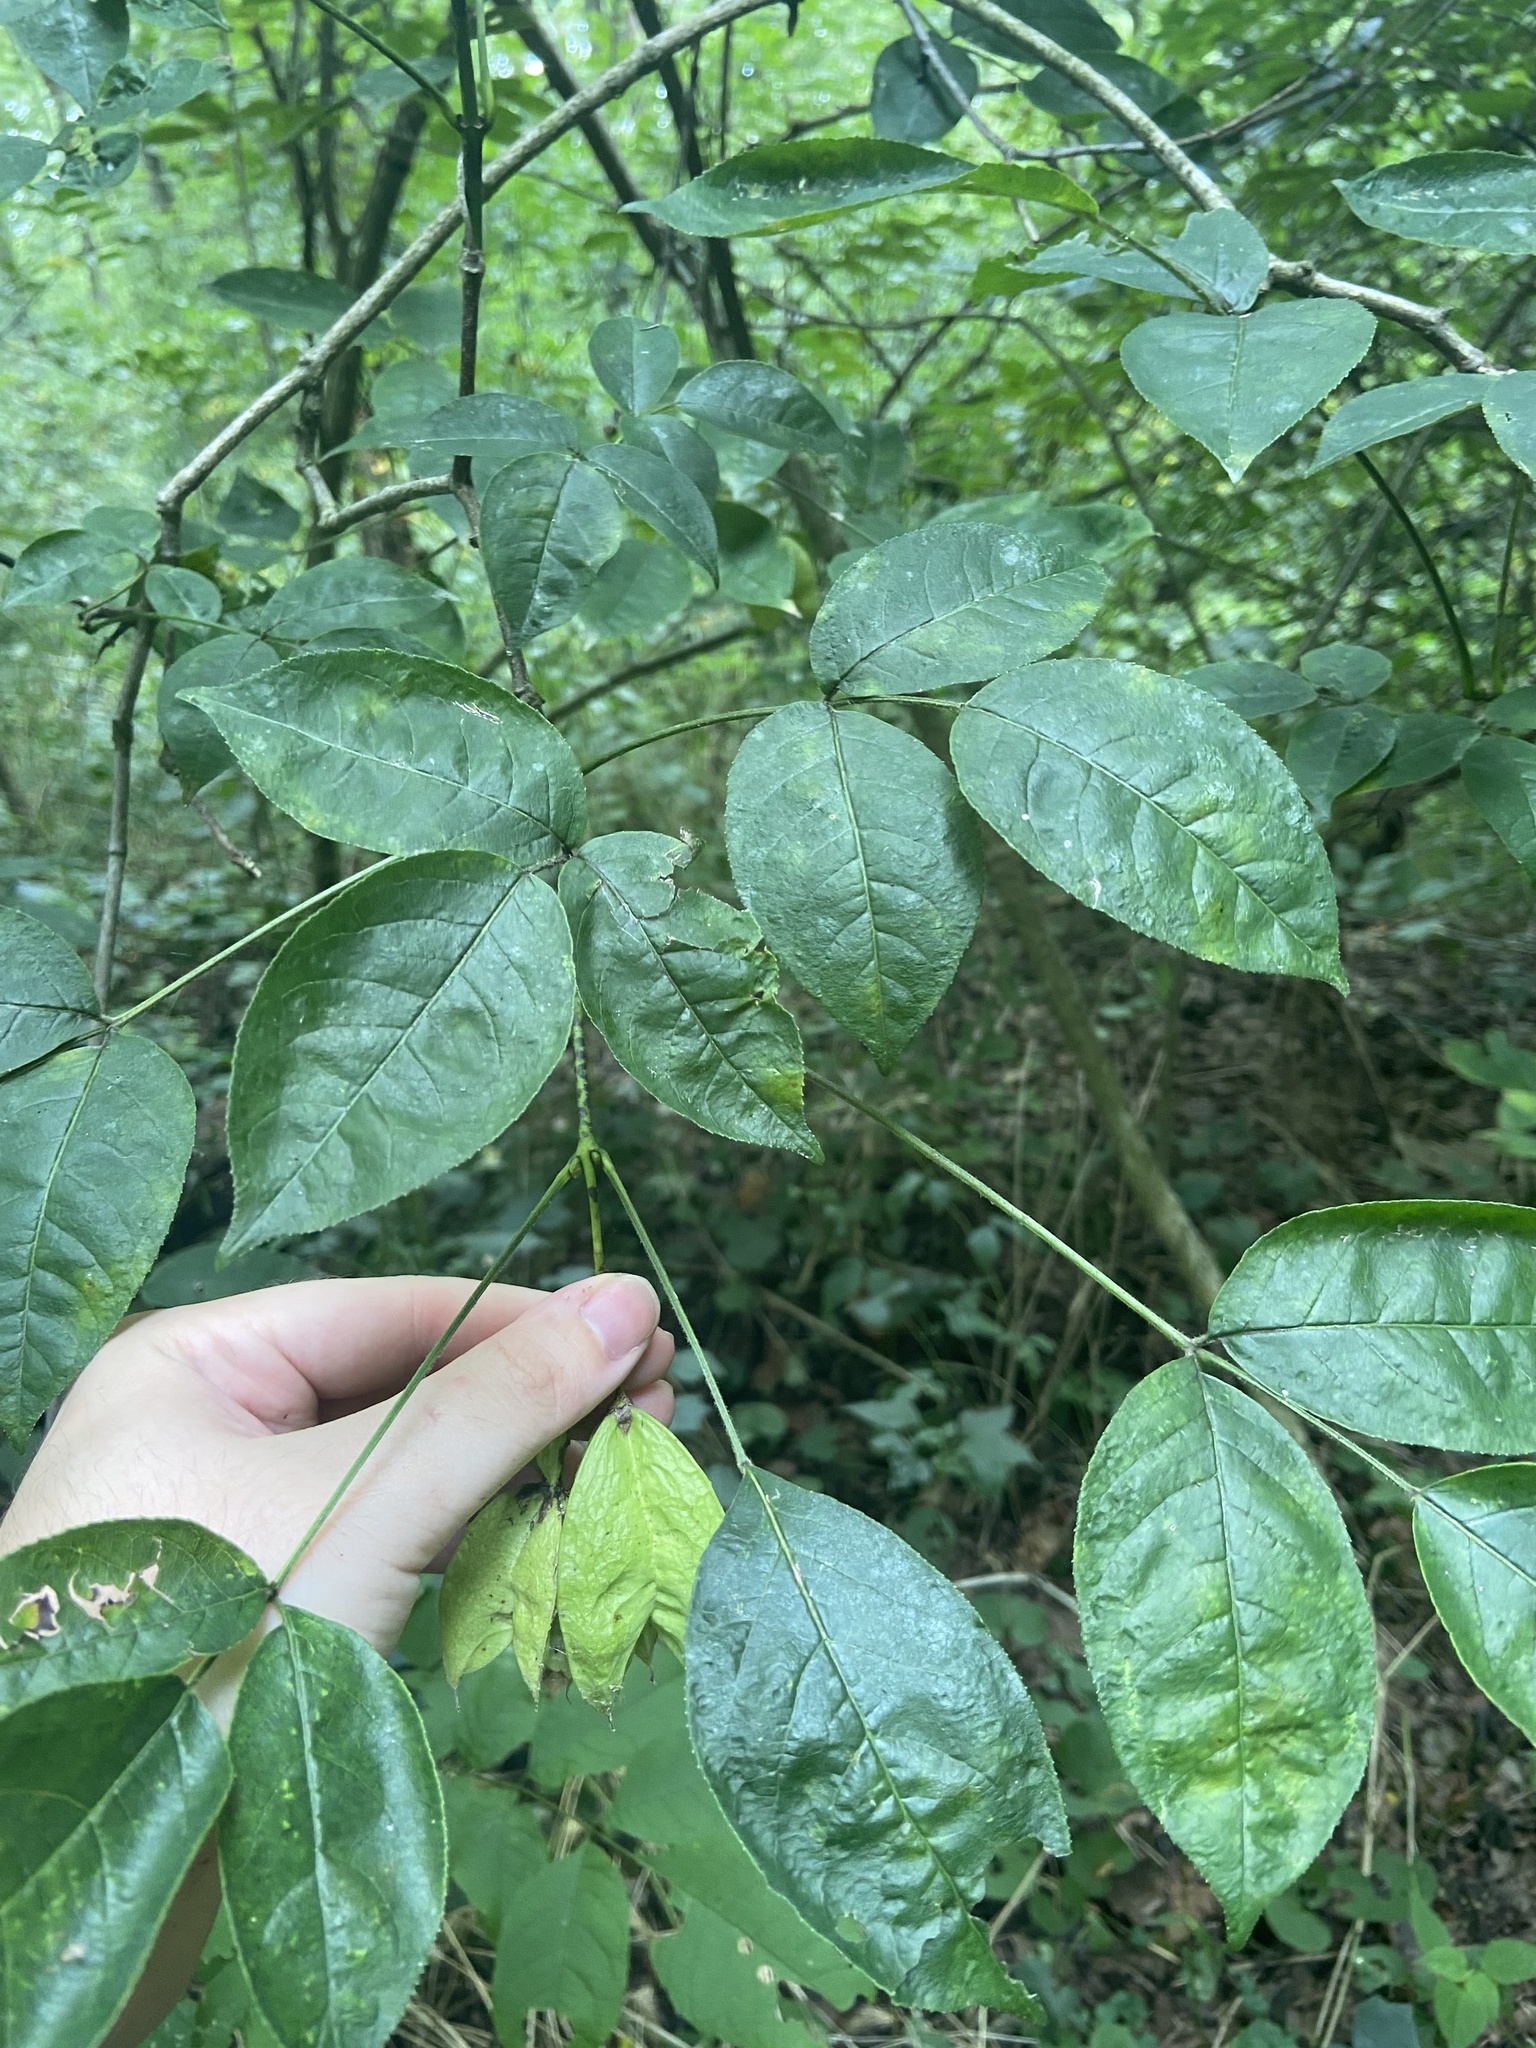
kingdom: Plantae
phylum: Tracheophyta
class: Magnoliopsida
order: Crossosomatales
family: Staphyleaceae
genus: Staphylea
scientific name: Staphylea trifolia
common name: American bladdernut
